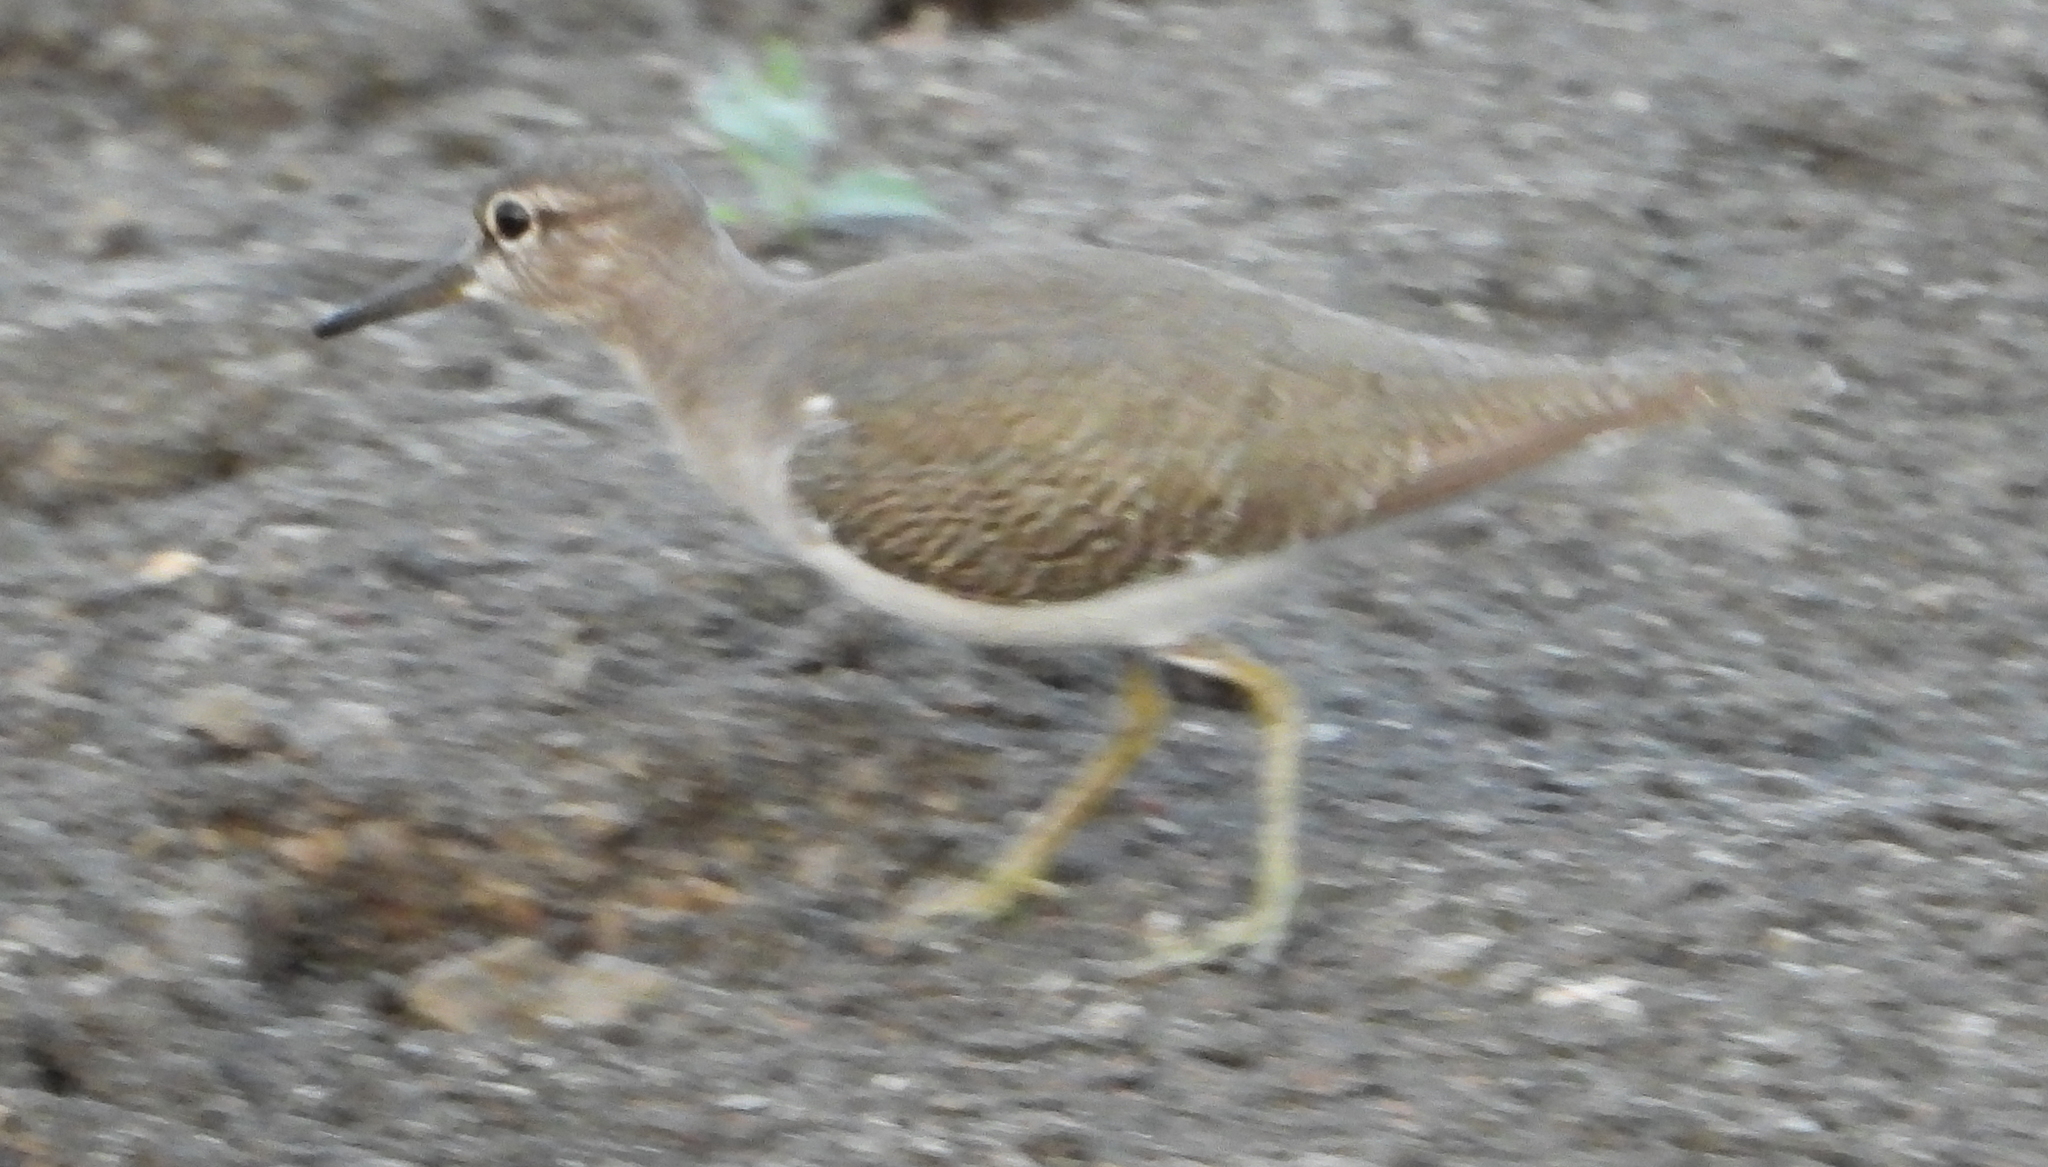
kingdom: Animalia
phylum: Chordata
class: Aves
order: Charadriiformes
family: Scolopacidae
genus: Actitis
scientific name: Actitis hypoleucos
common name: Common sandpiper
